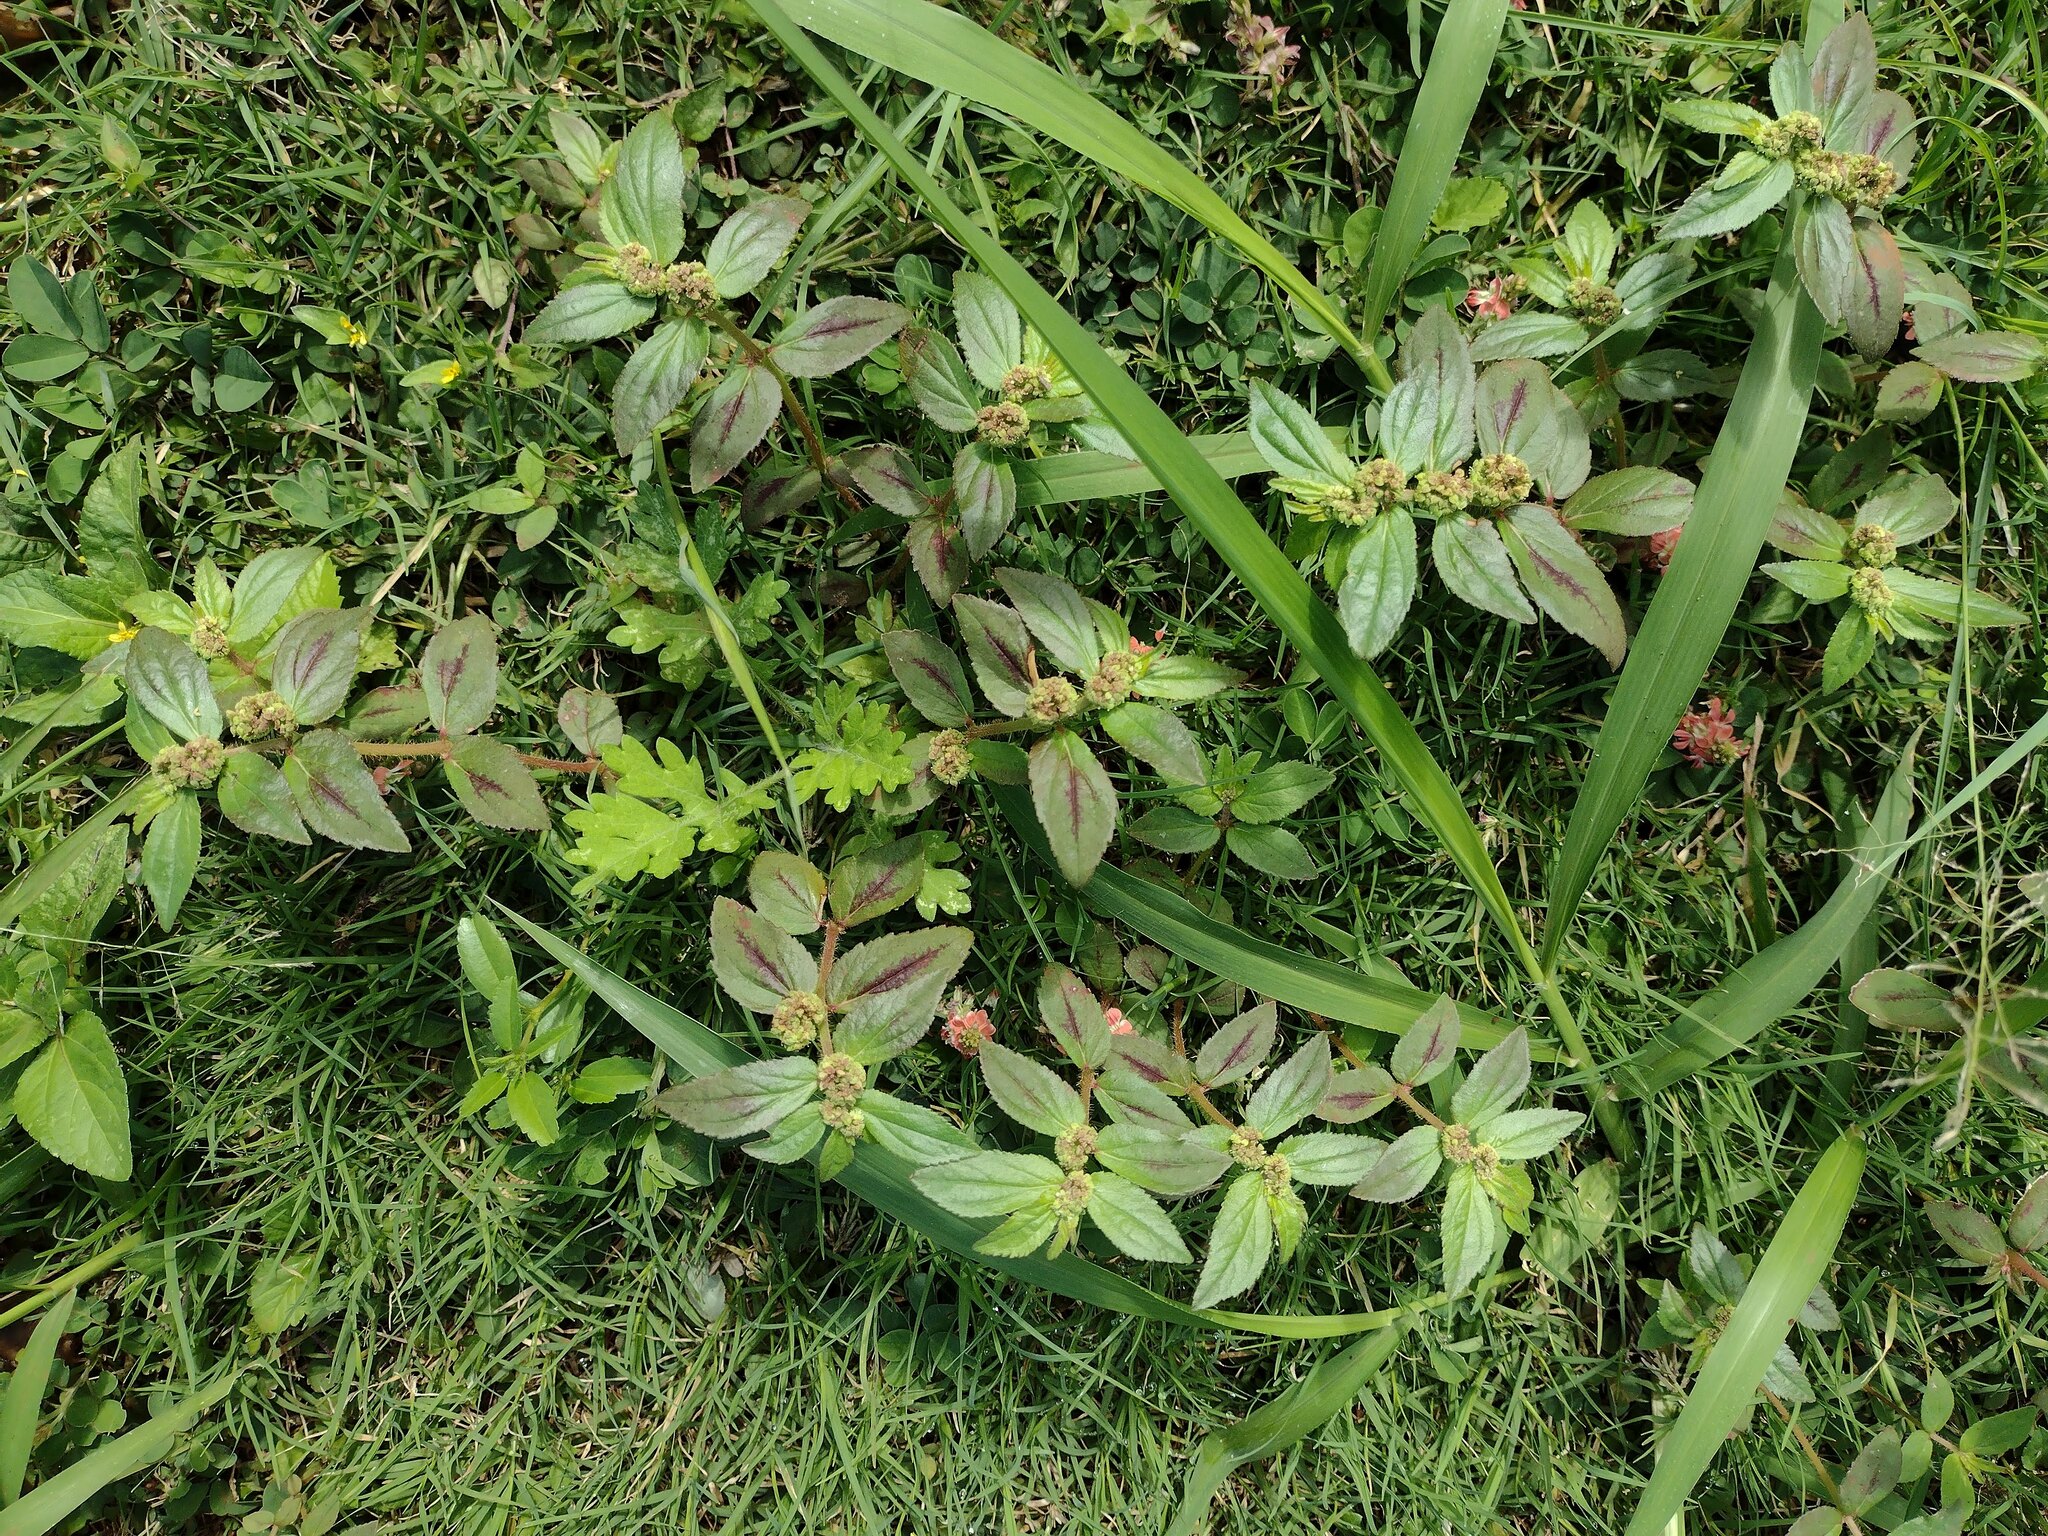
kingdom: Plantae
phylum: Tracheophyta
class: Magnoliopsida
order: Malpighiales
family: Euphorbiaceae
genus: Euphorbia
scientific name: Euphorbia hirta
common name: Pillpod sandmat
